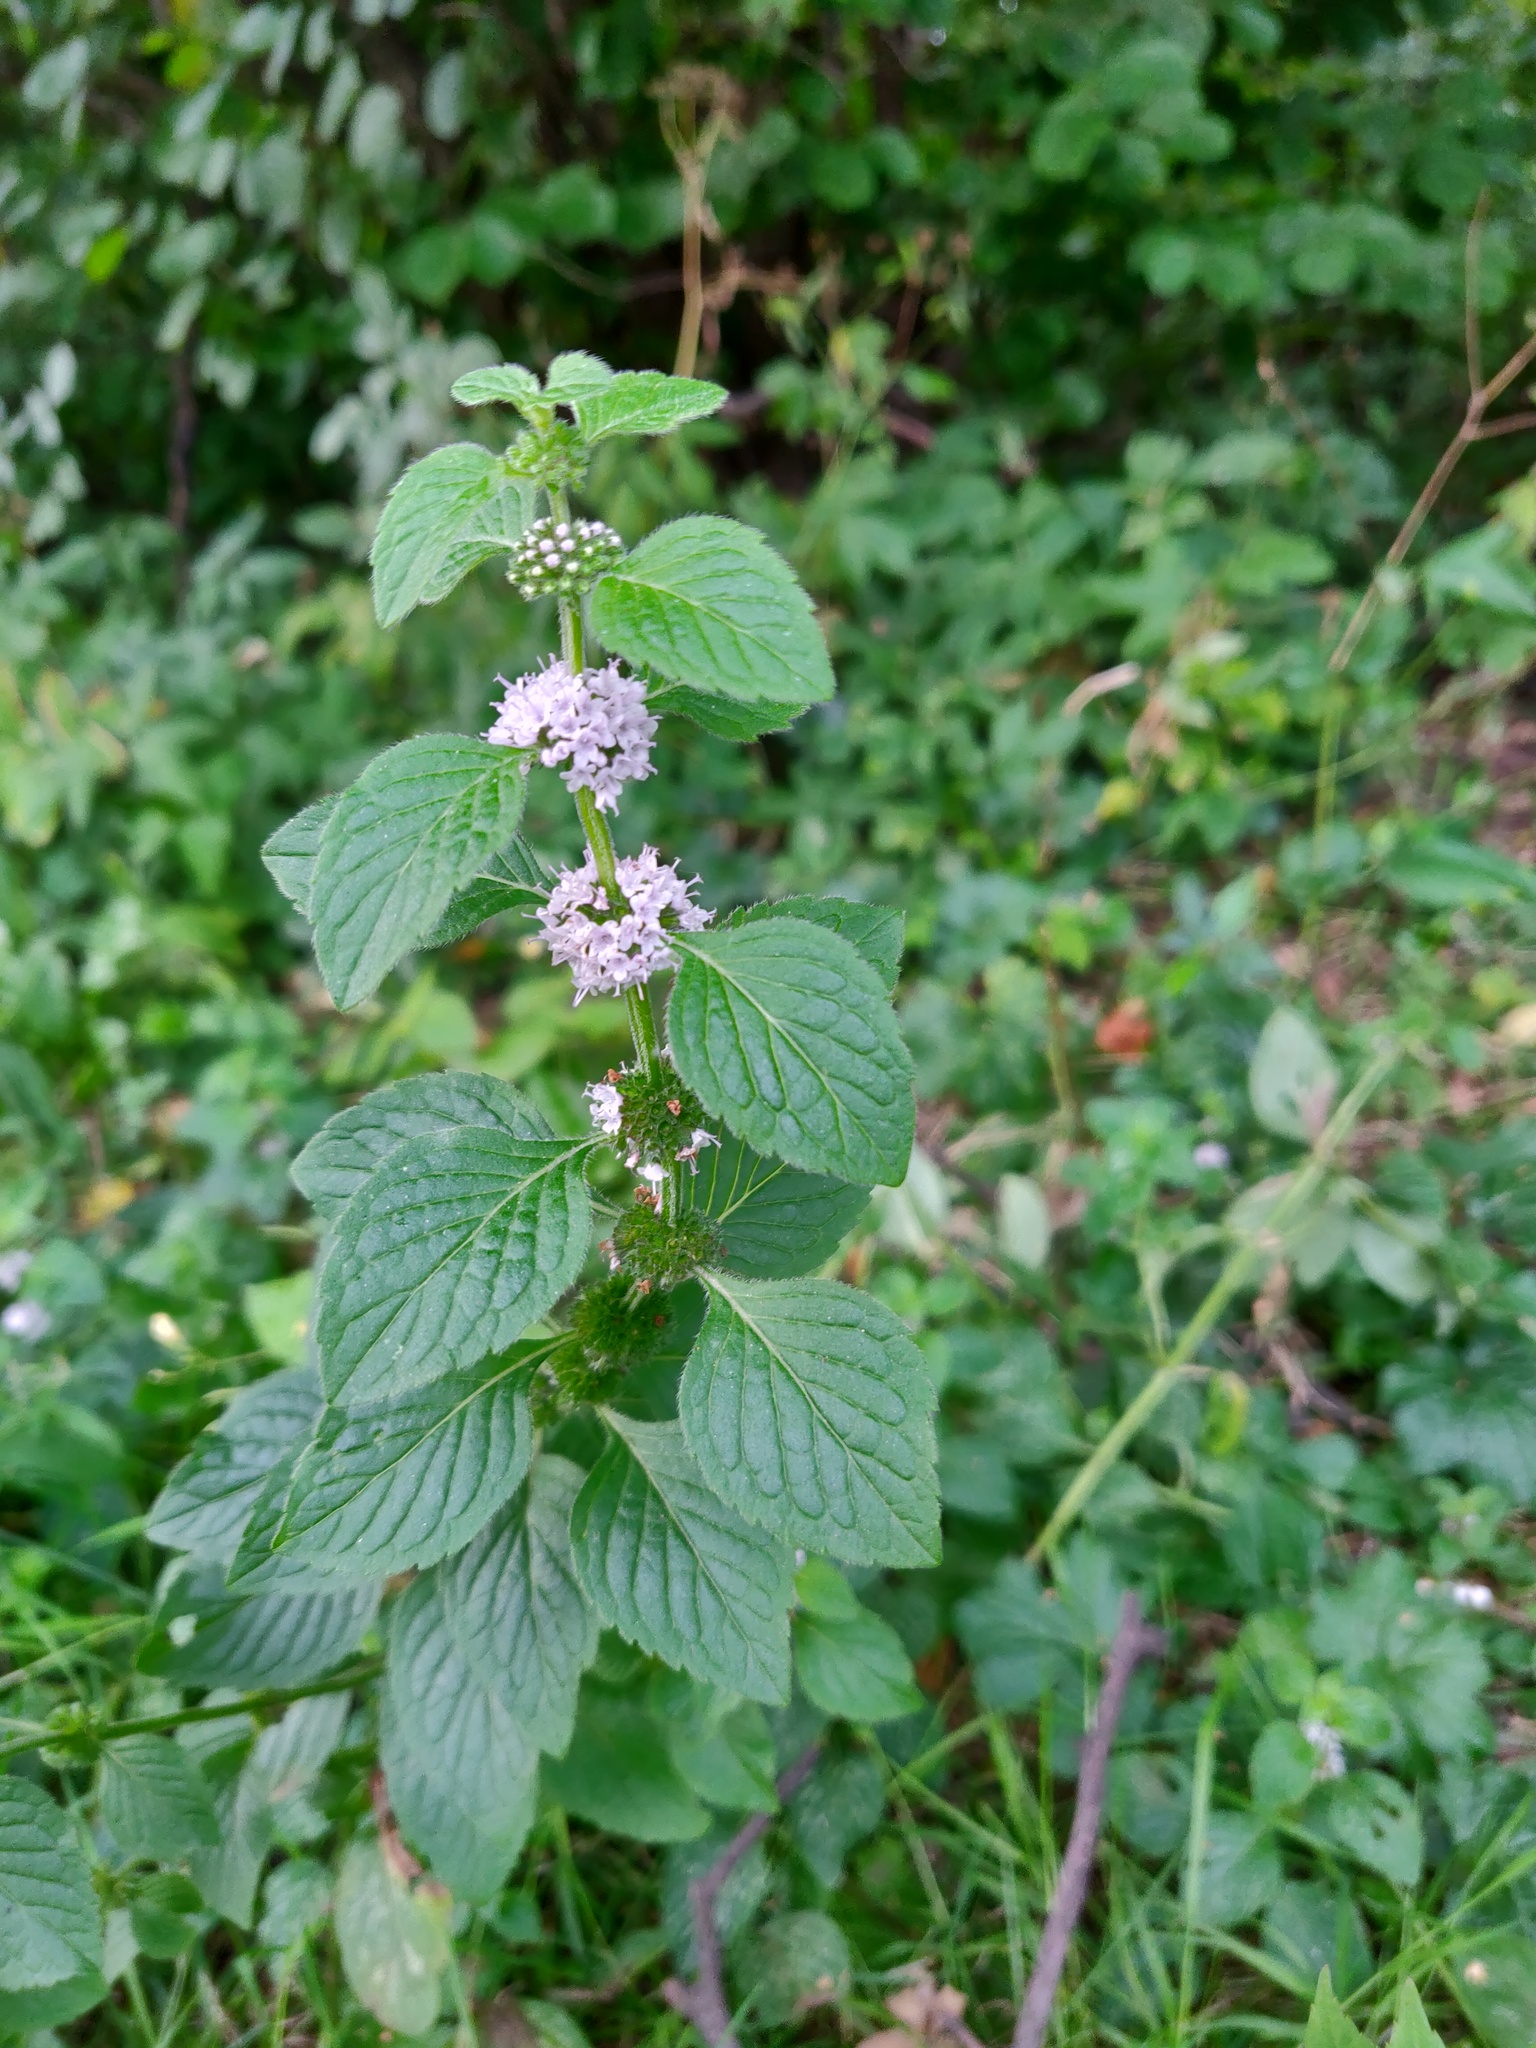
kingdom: Plantae
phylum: Tracheophyta
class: Magnoliopsida
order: Lamiales
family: Lamiaceae
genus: Mentha
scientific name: Mentha arvensis
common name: Corn mint
